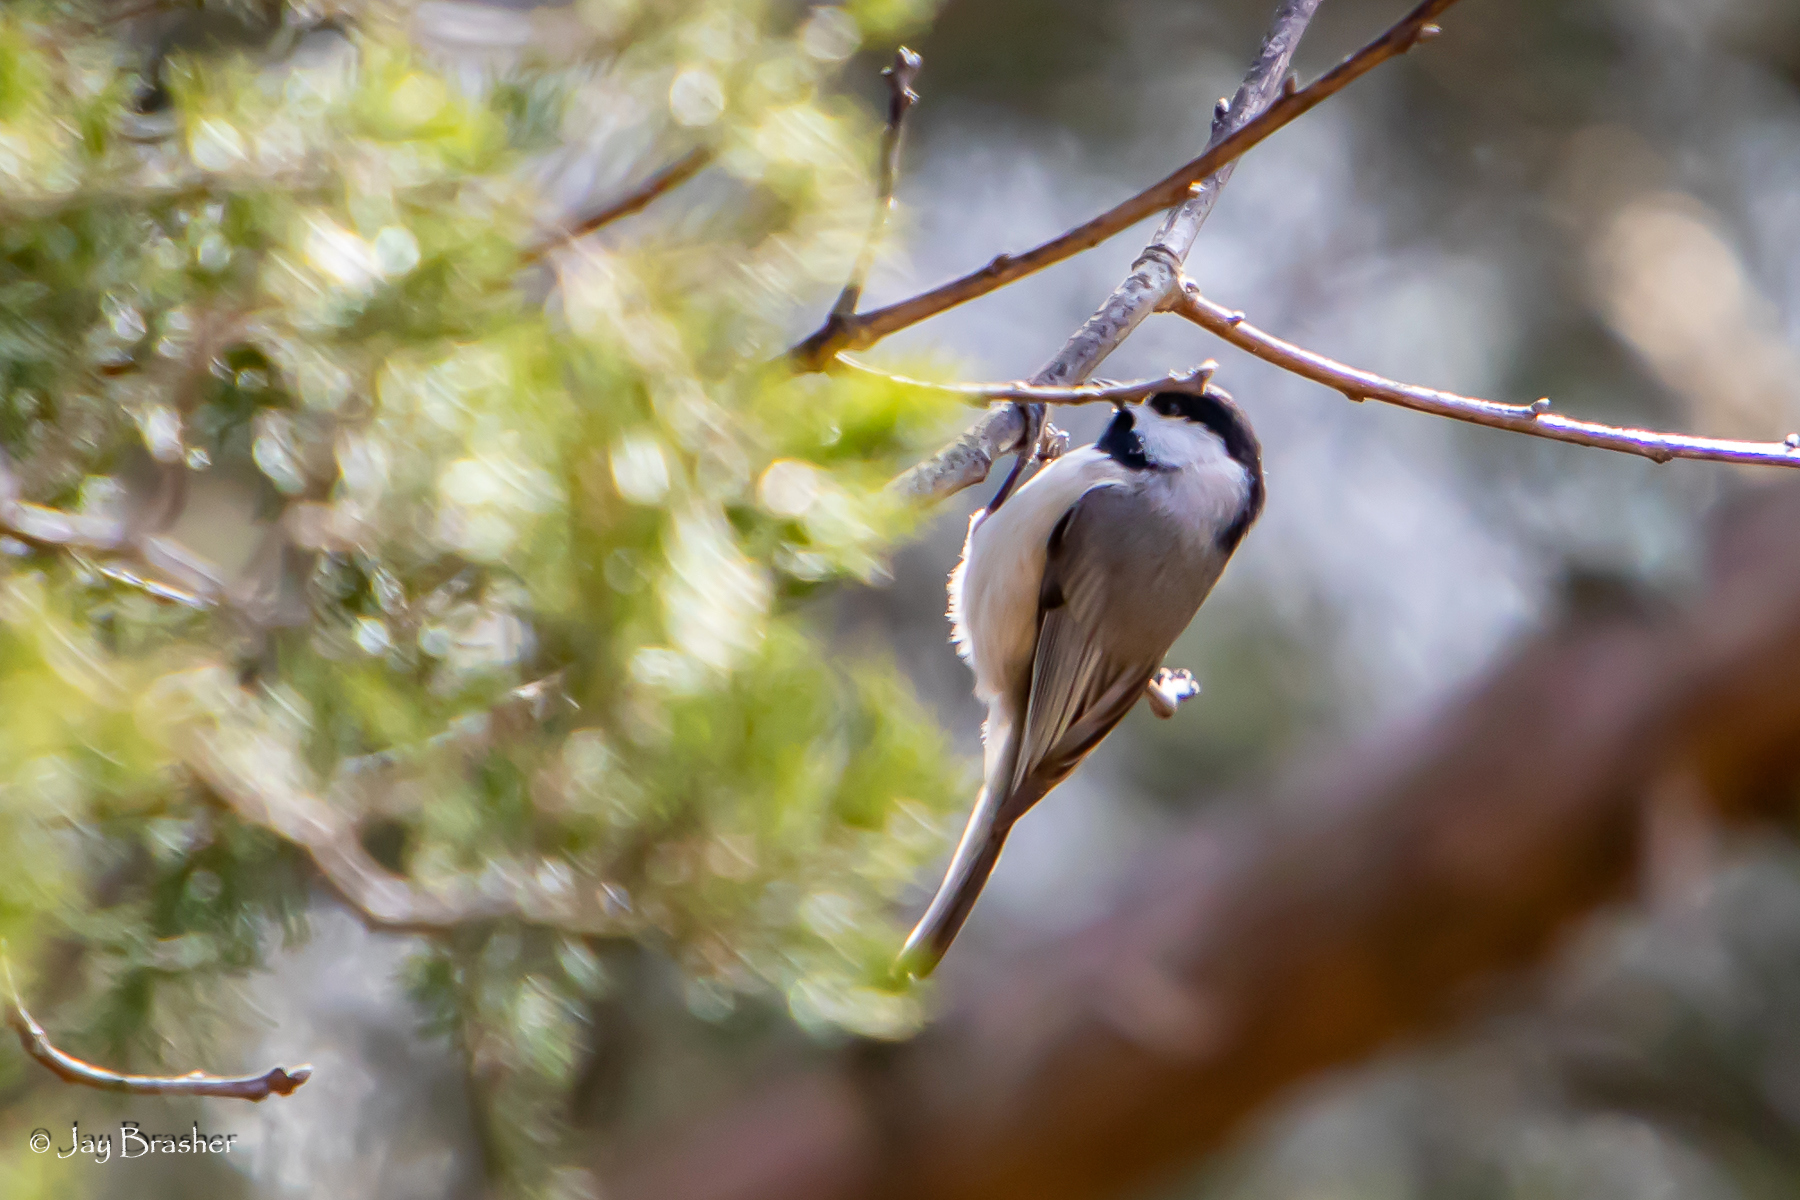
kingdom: Animalia
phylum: Chordata
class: Aves
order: Passeriformes
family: Paridae
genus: Poecile
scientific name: Poecile carolinensis
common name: Carolina chickadee
